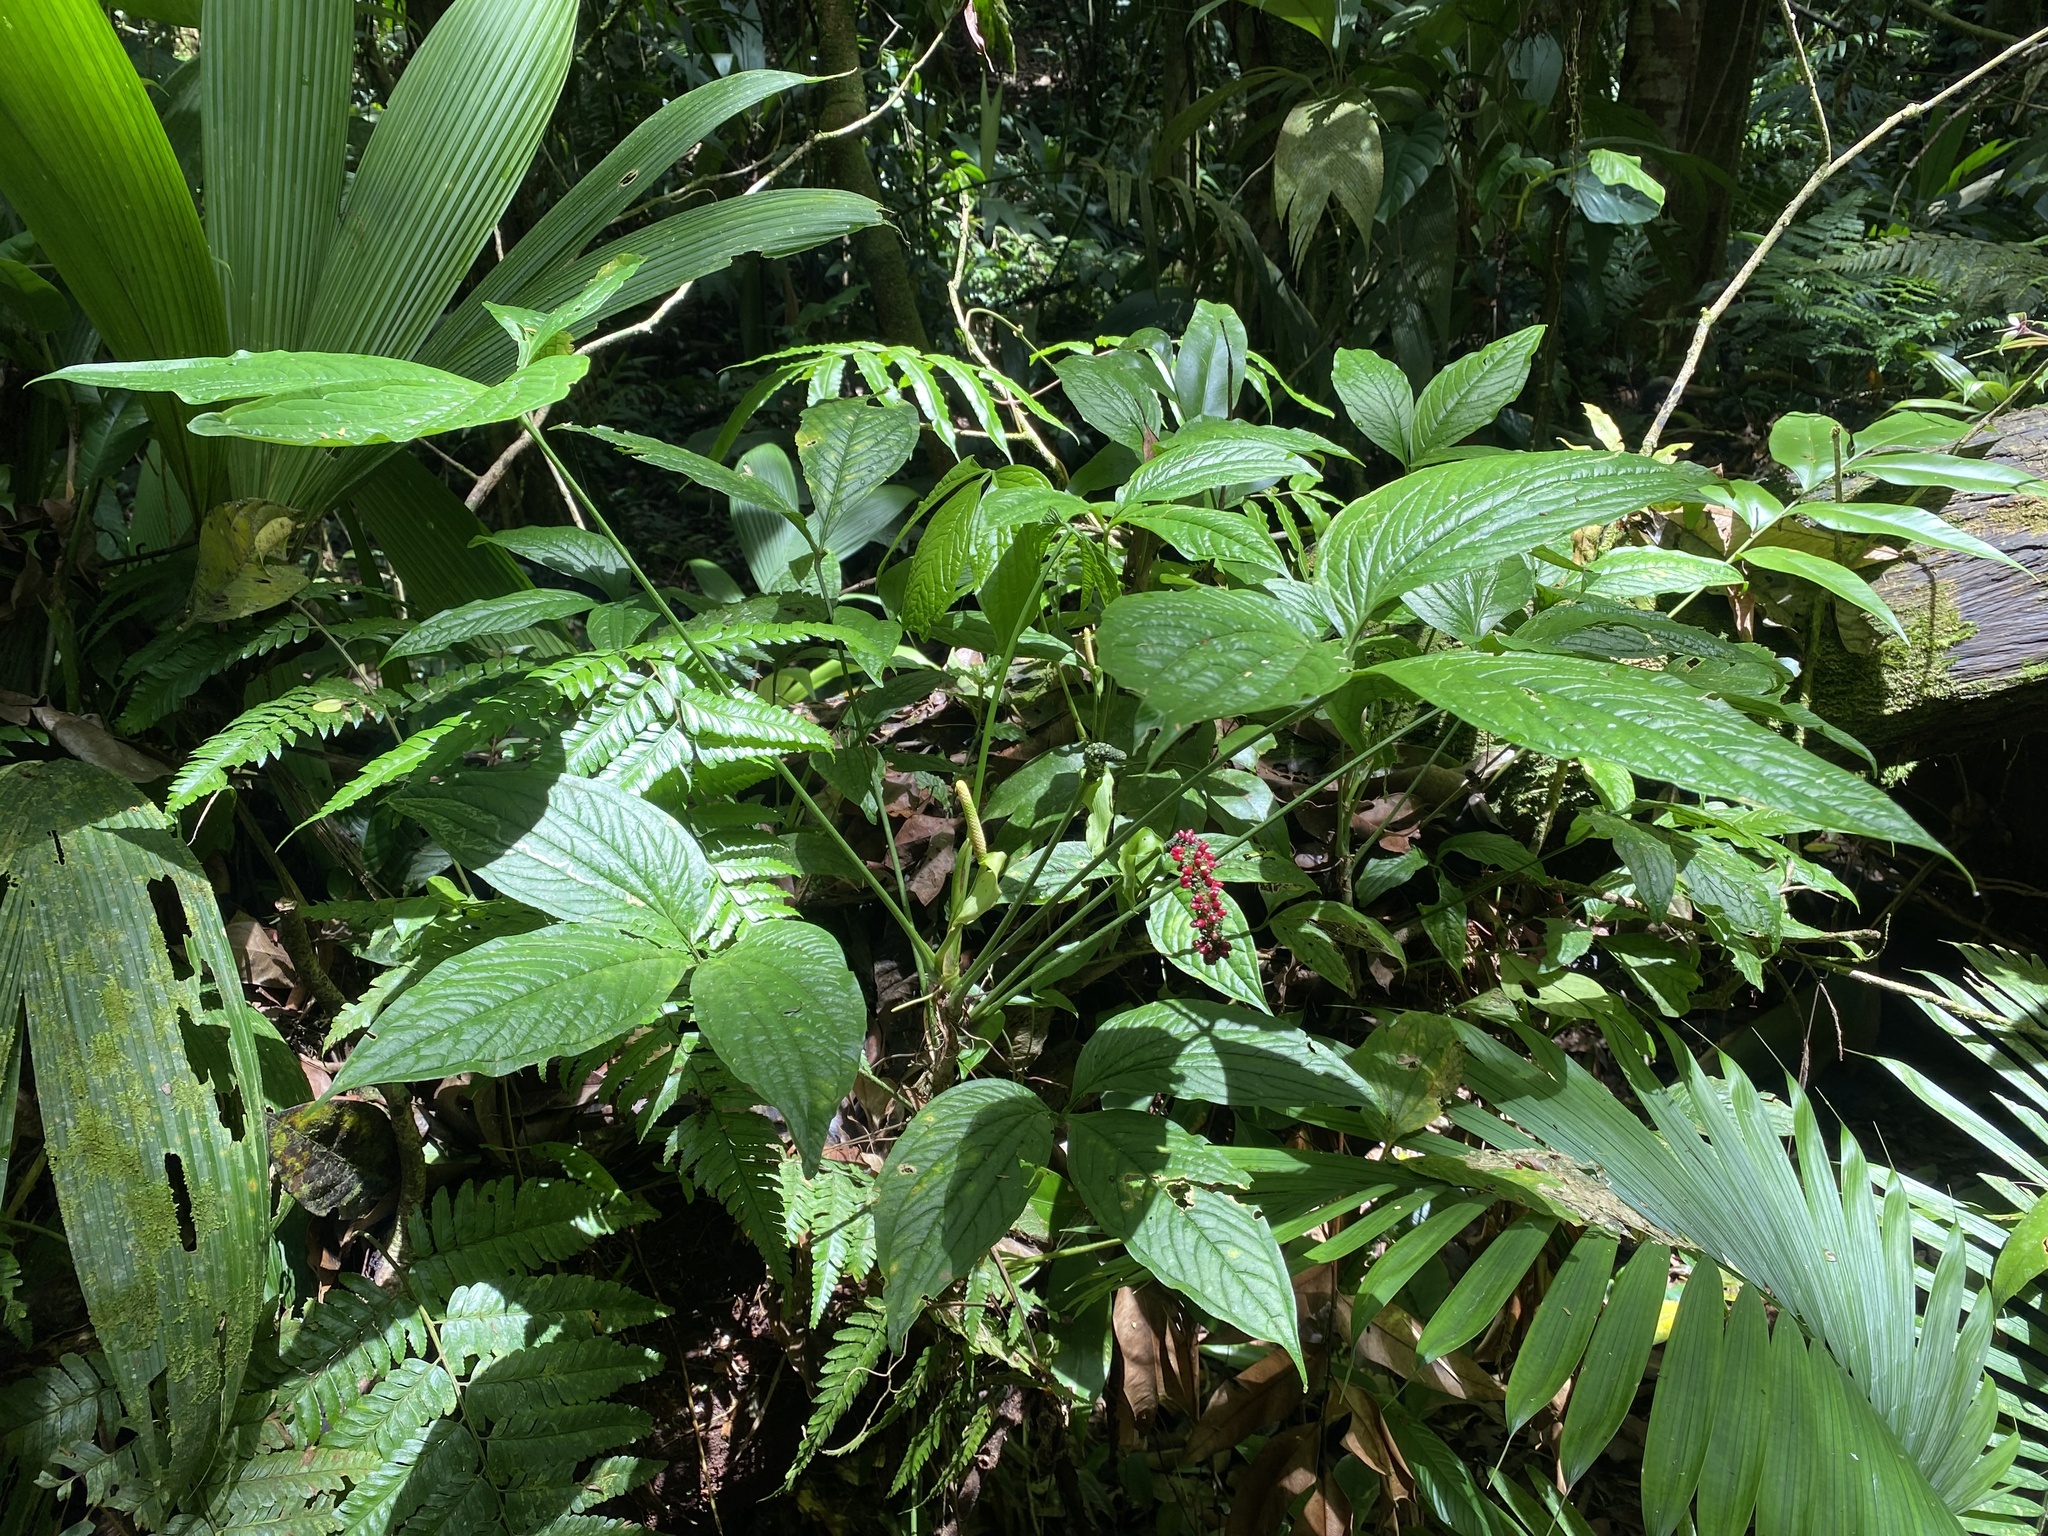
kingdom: Plantae
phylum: Tracheophyta
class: Liliopsida
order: Alismatales
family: Araceae
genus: Anthurium
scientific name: Anthurium trisectum
